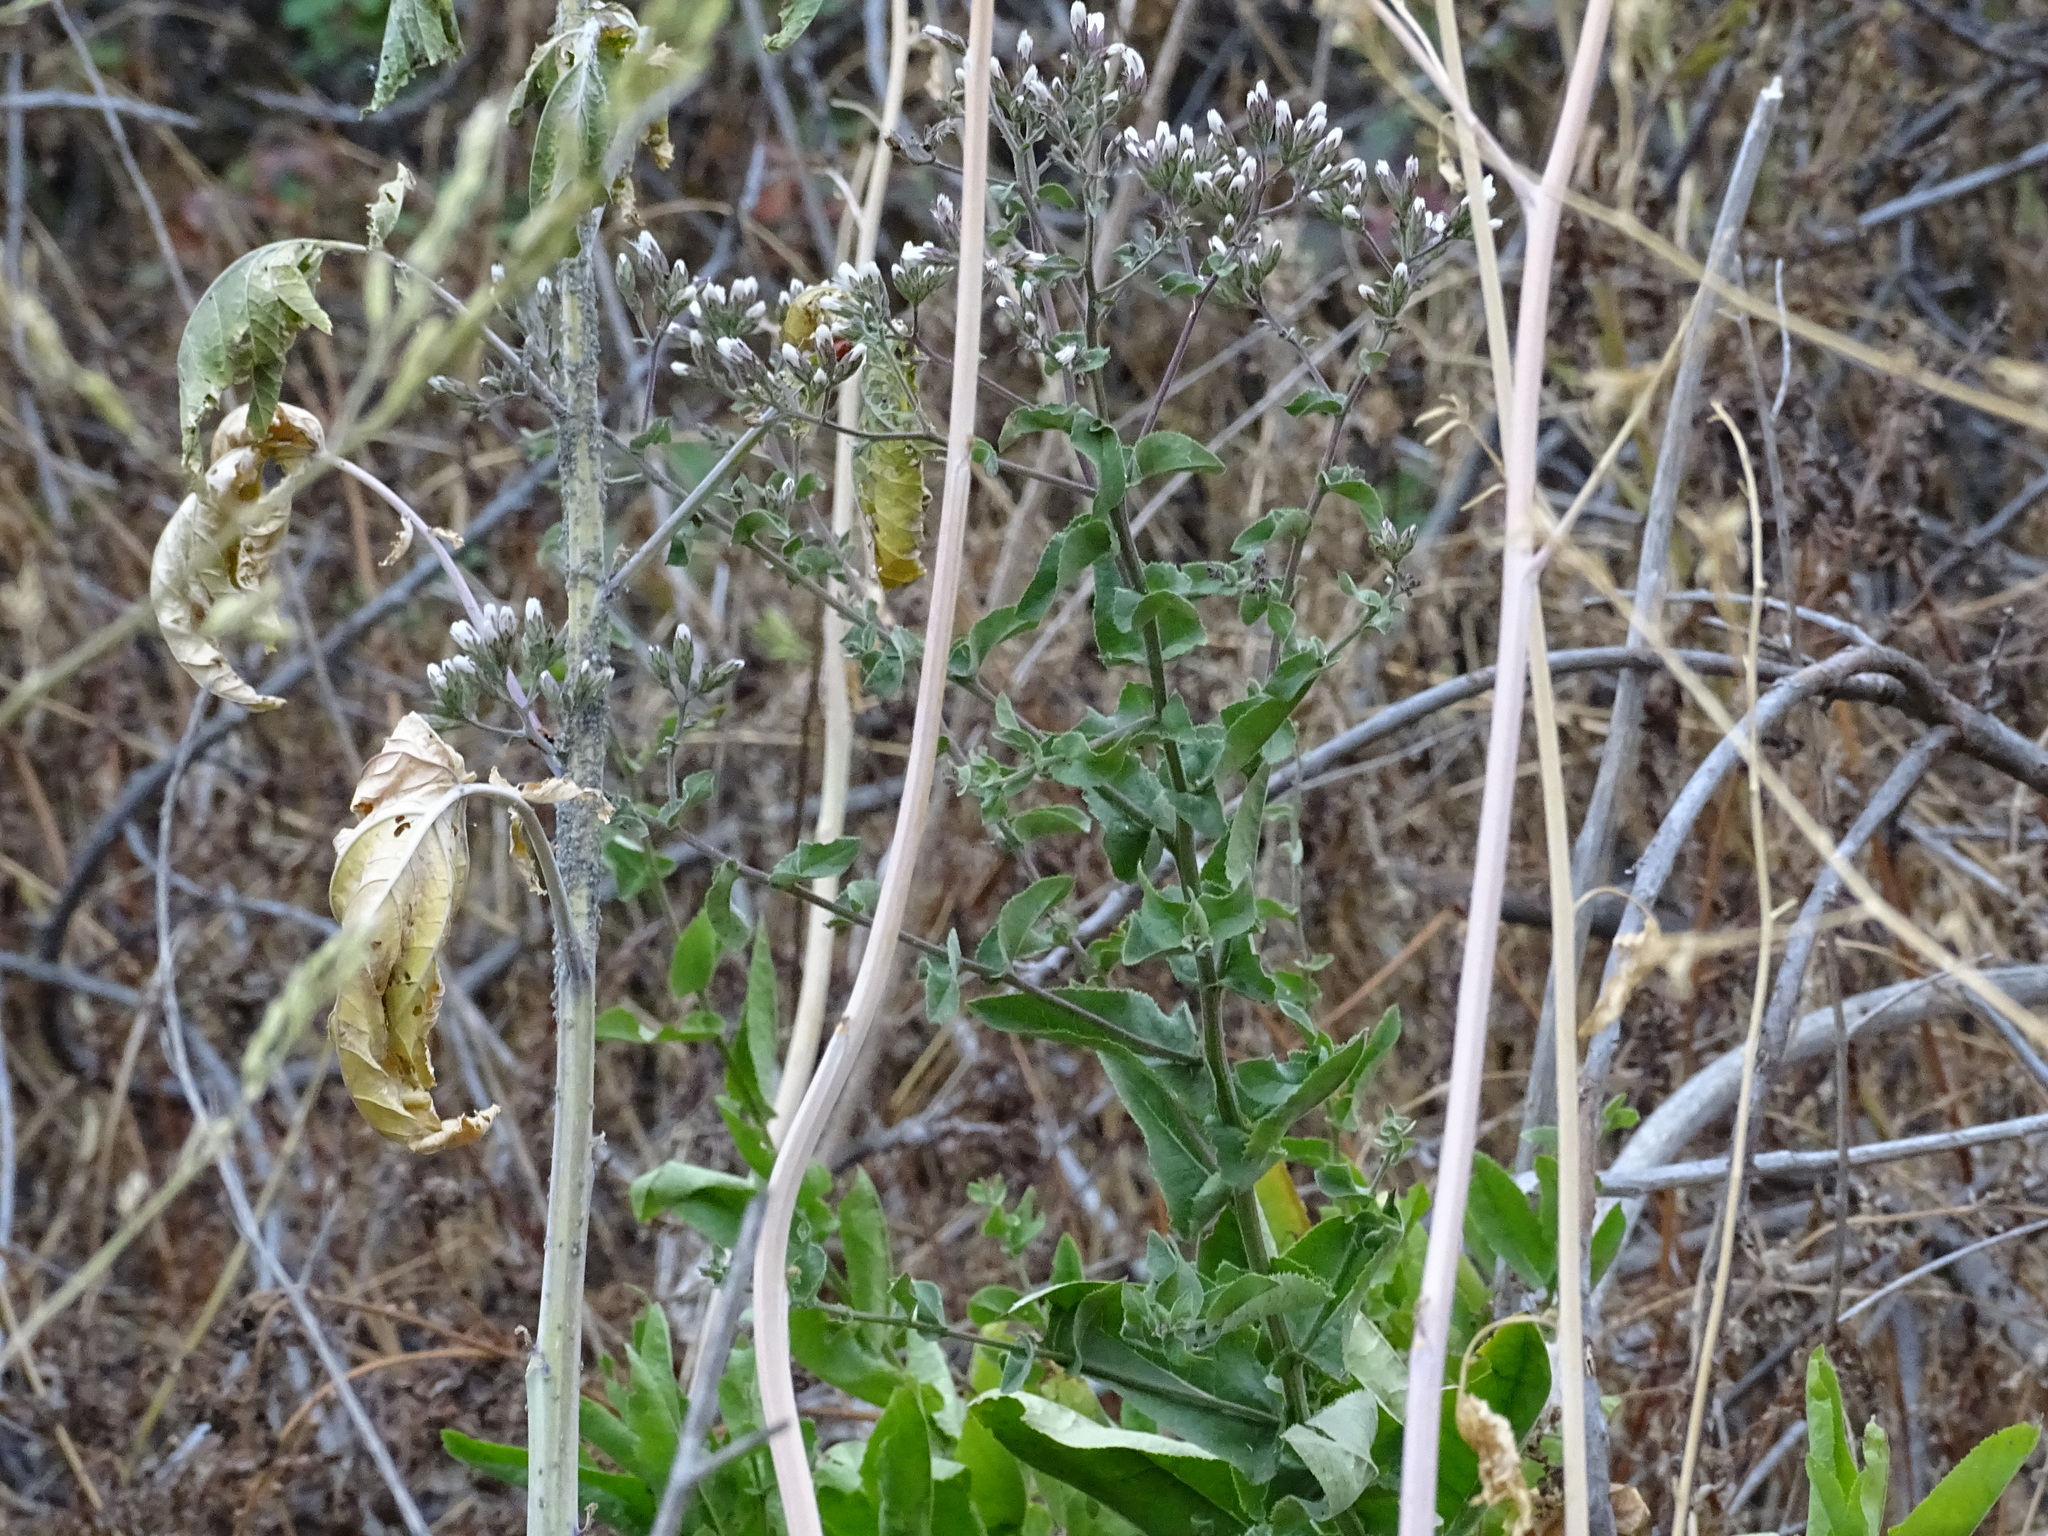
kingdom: Plantae
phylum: Tracheophyta
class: Magnoliopsida
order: Asterales
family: Asteraceae
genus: Acourtia
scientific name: Acourtia microcephala
